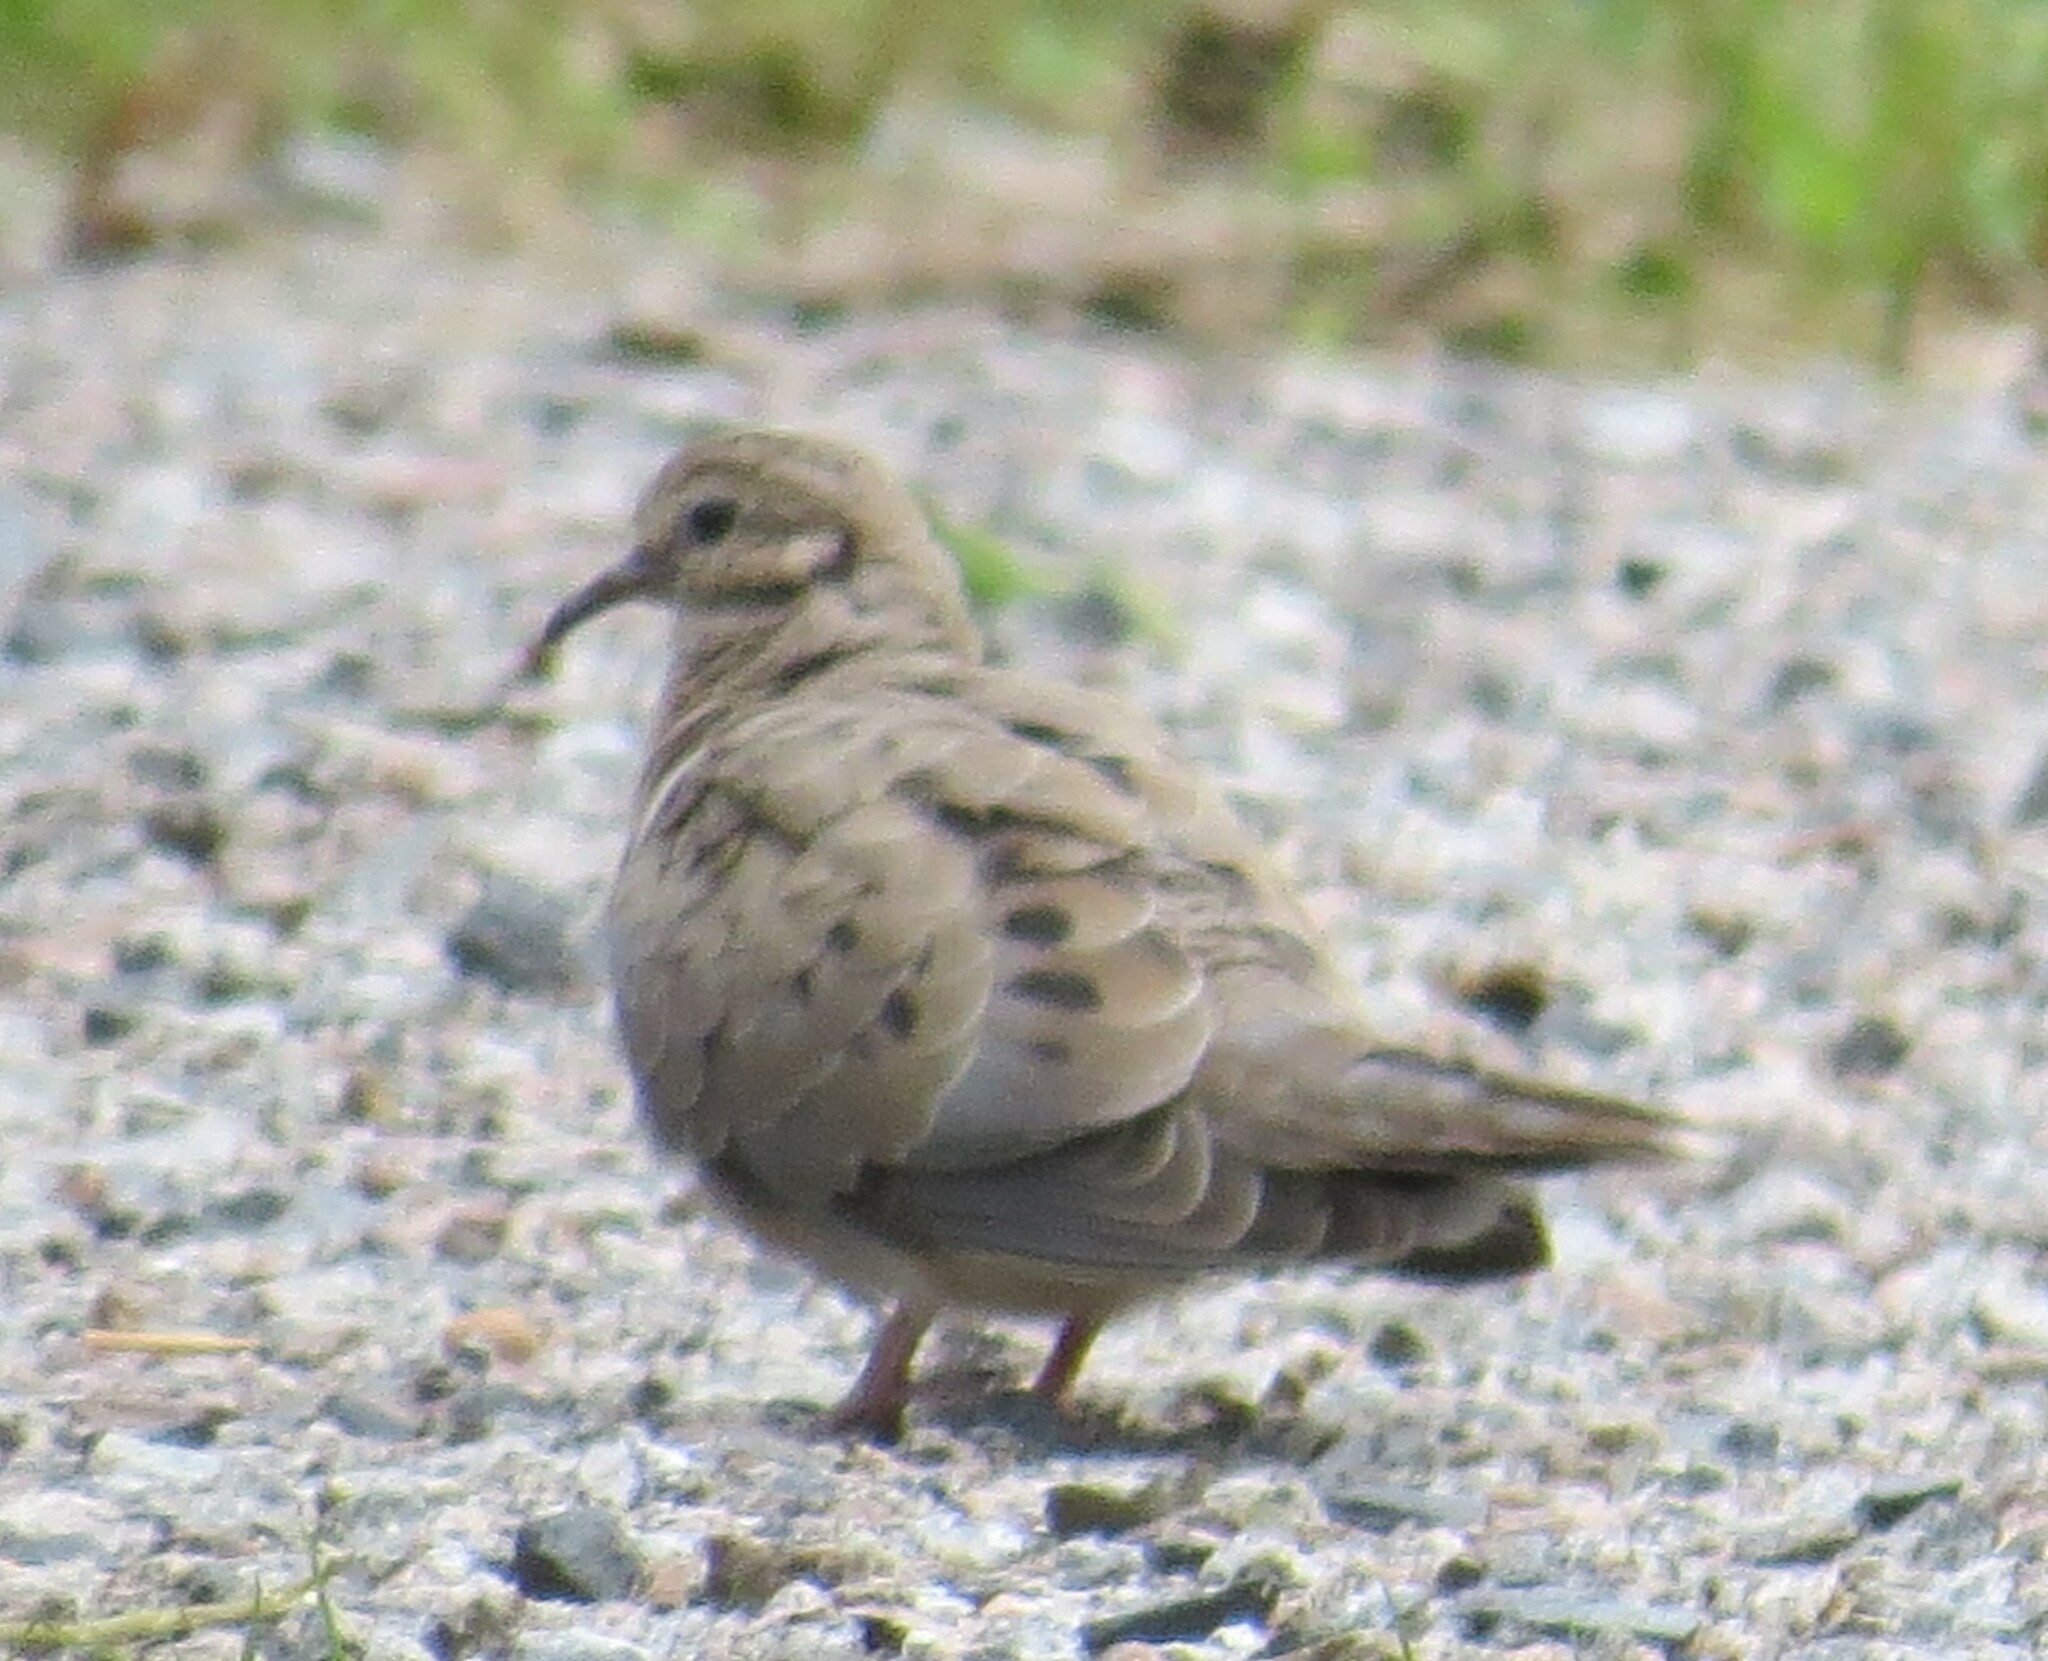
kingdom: Animalia
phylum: Chordata
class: Aves
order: Columbiformes
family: Columbidae
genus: Zenaida
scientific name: Zenaida macroura
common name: Mourning dove
